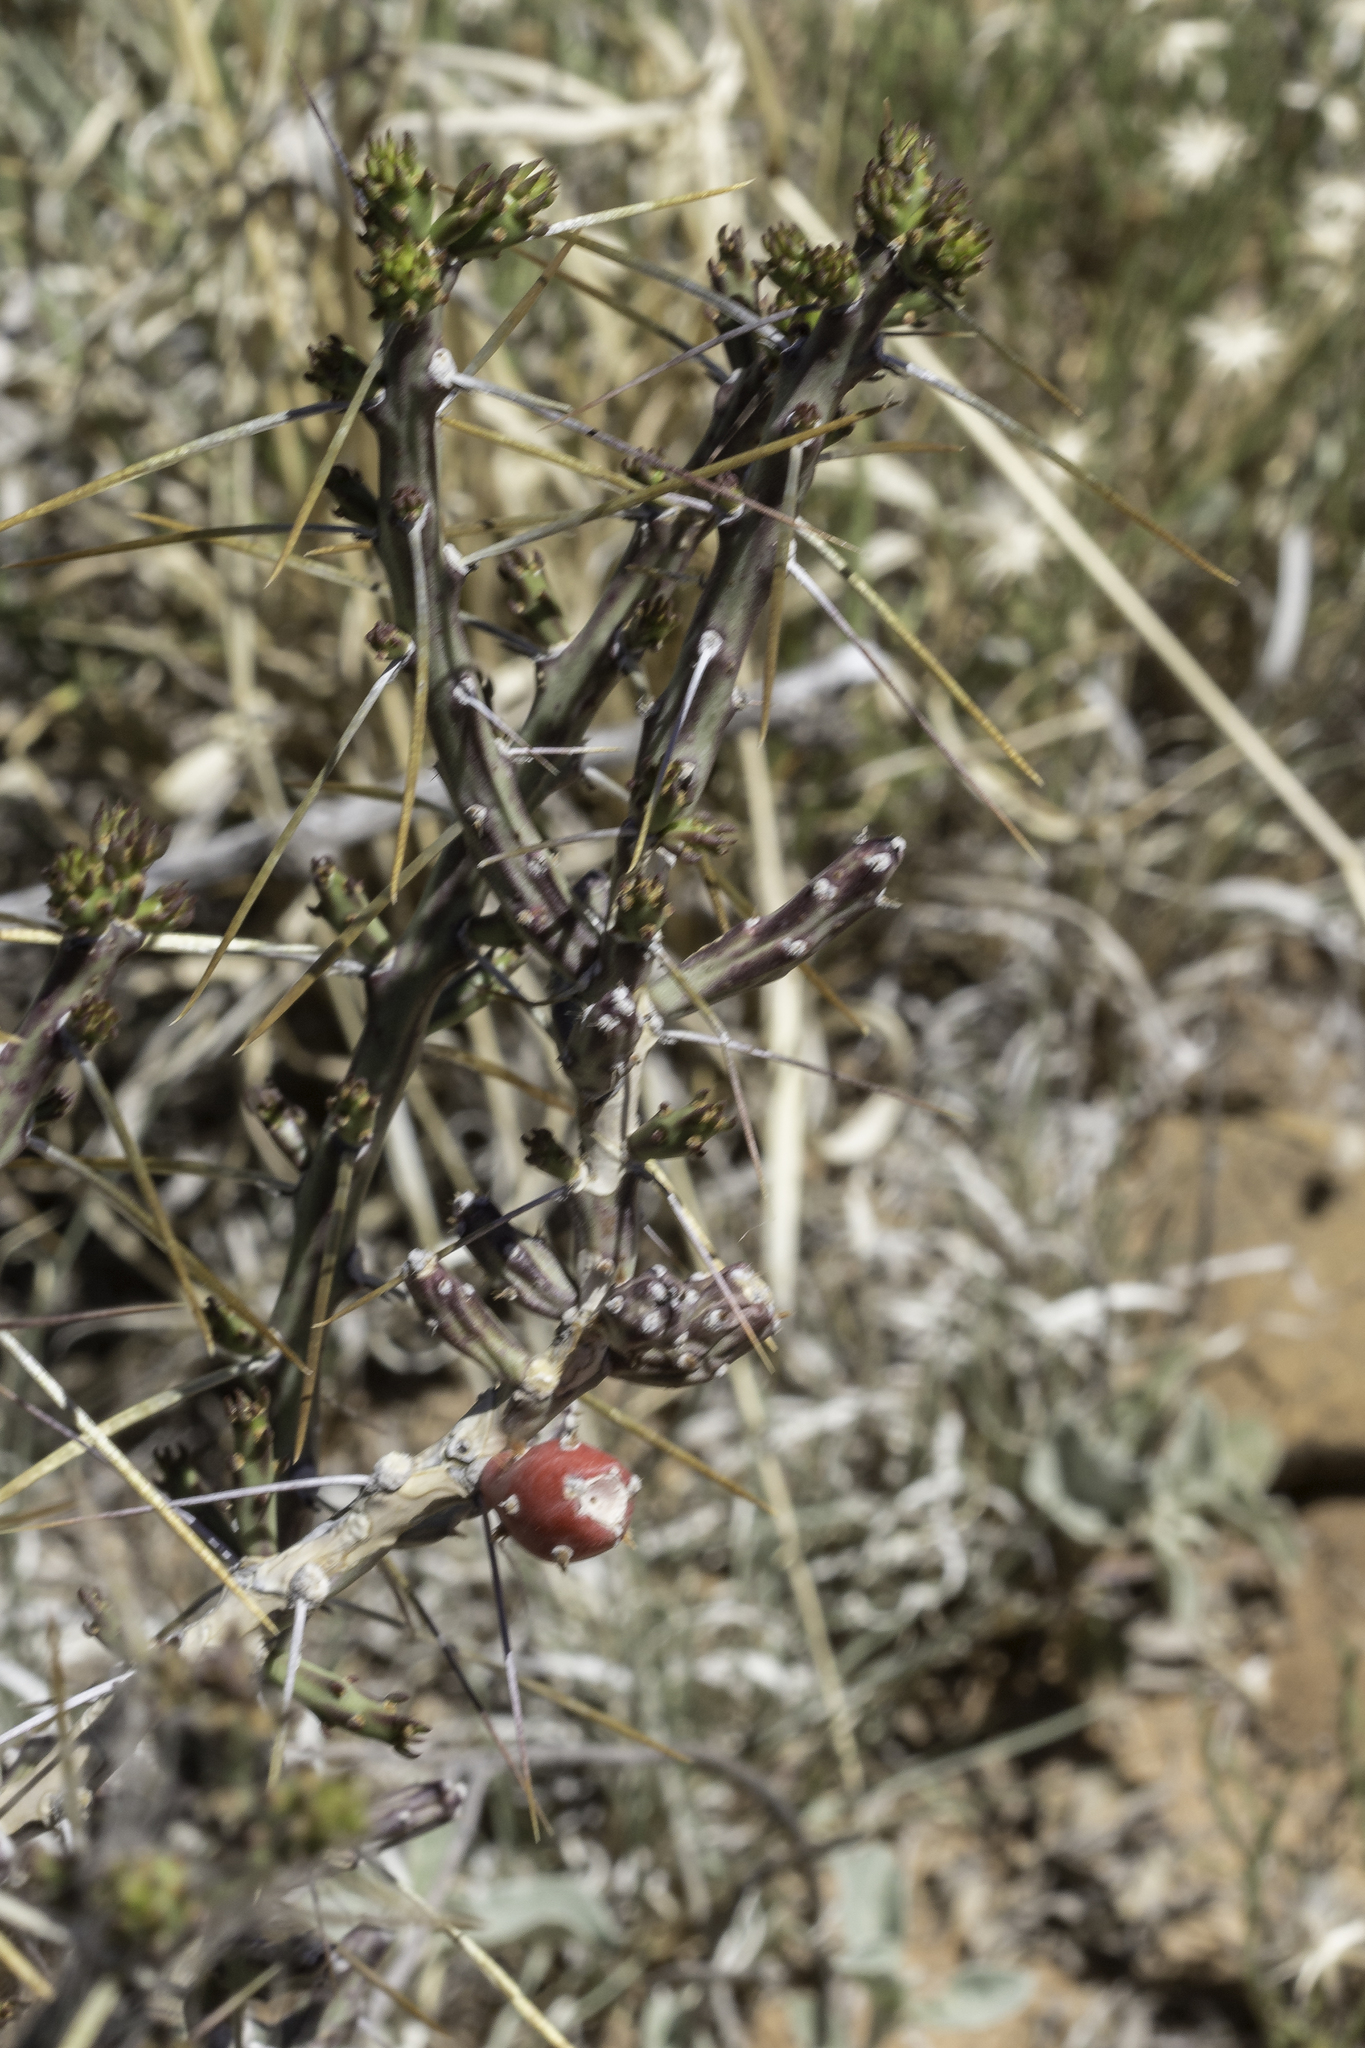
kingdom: Plantae
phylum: Tracheophyta
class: Magnoliopsida
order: Caryophyllales
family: Cactaceae
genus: Cylindropuntia
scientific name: Cylindropuntia leptocaulis
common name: Christmas cactus
